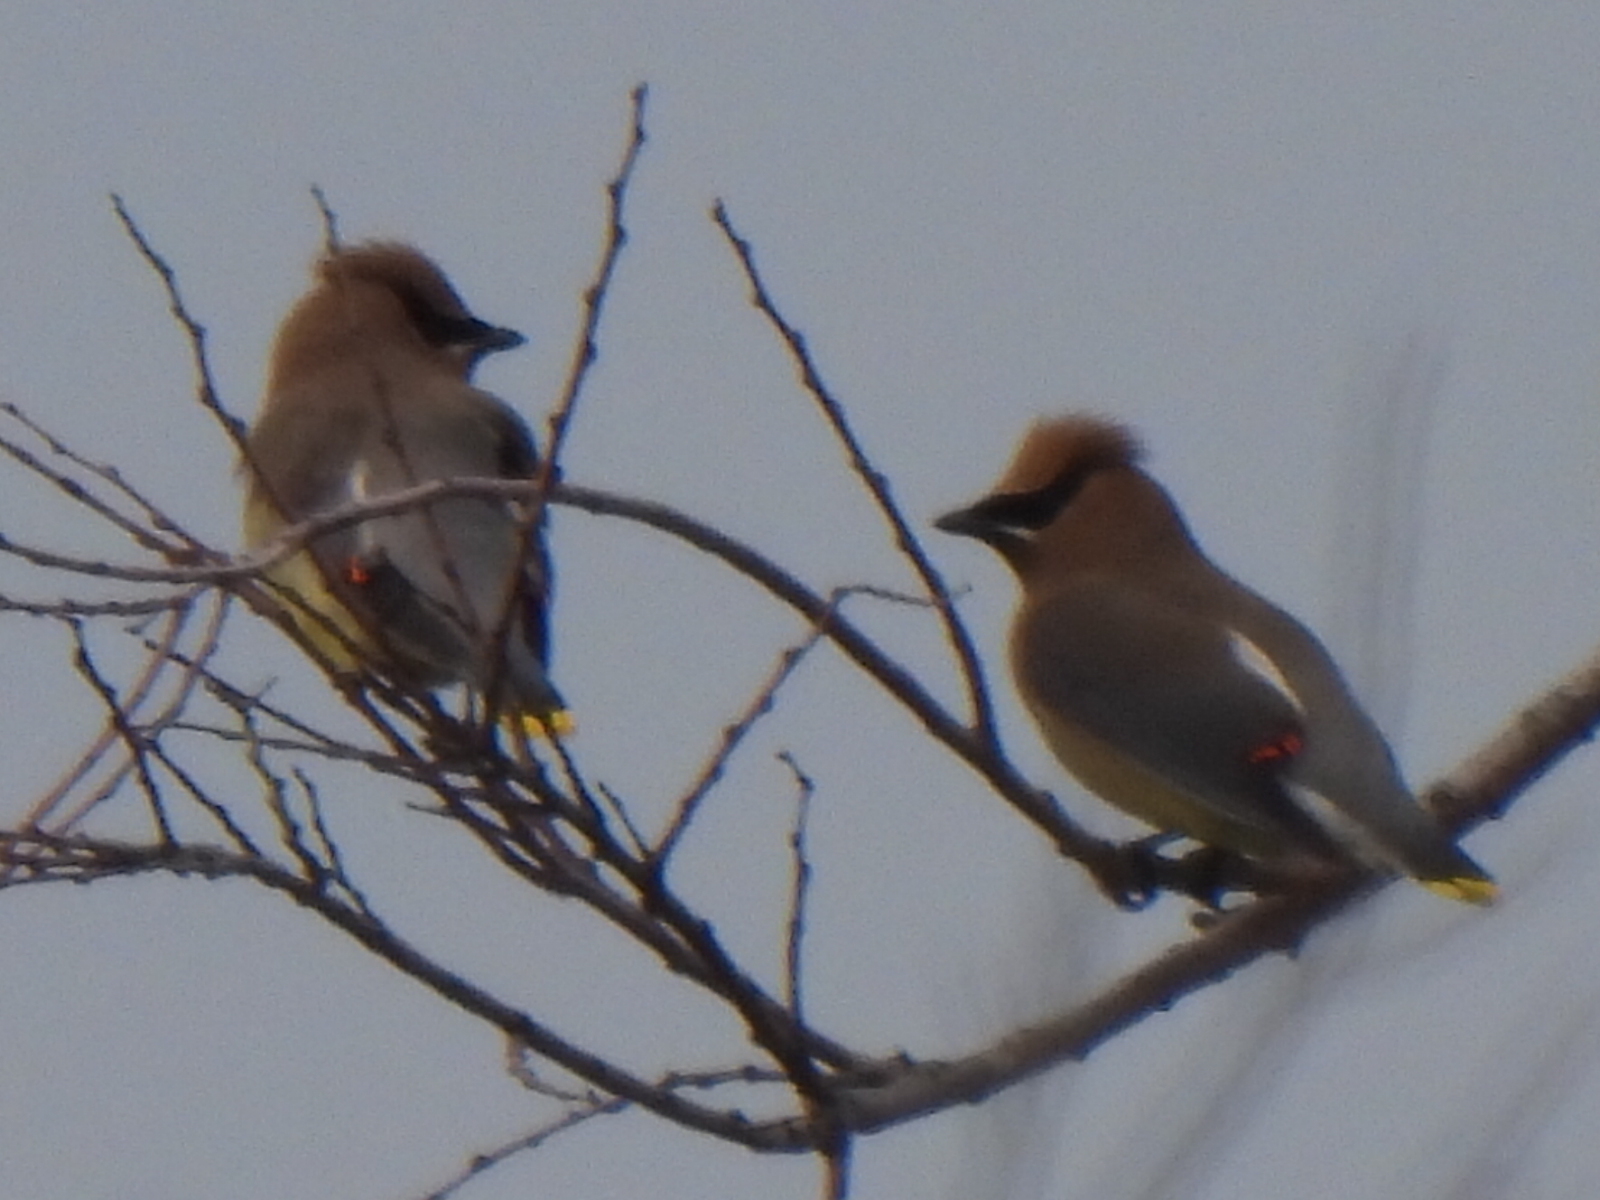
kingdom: Animalia
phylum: Chordata
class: Aves
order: Passeriformes
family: Bombycillidae
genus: Bombycilla
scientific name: Bombycilla cedrorum
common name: Cedar waxwing
